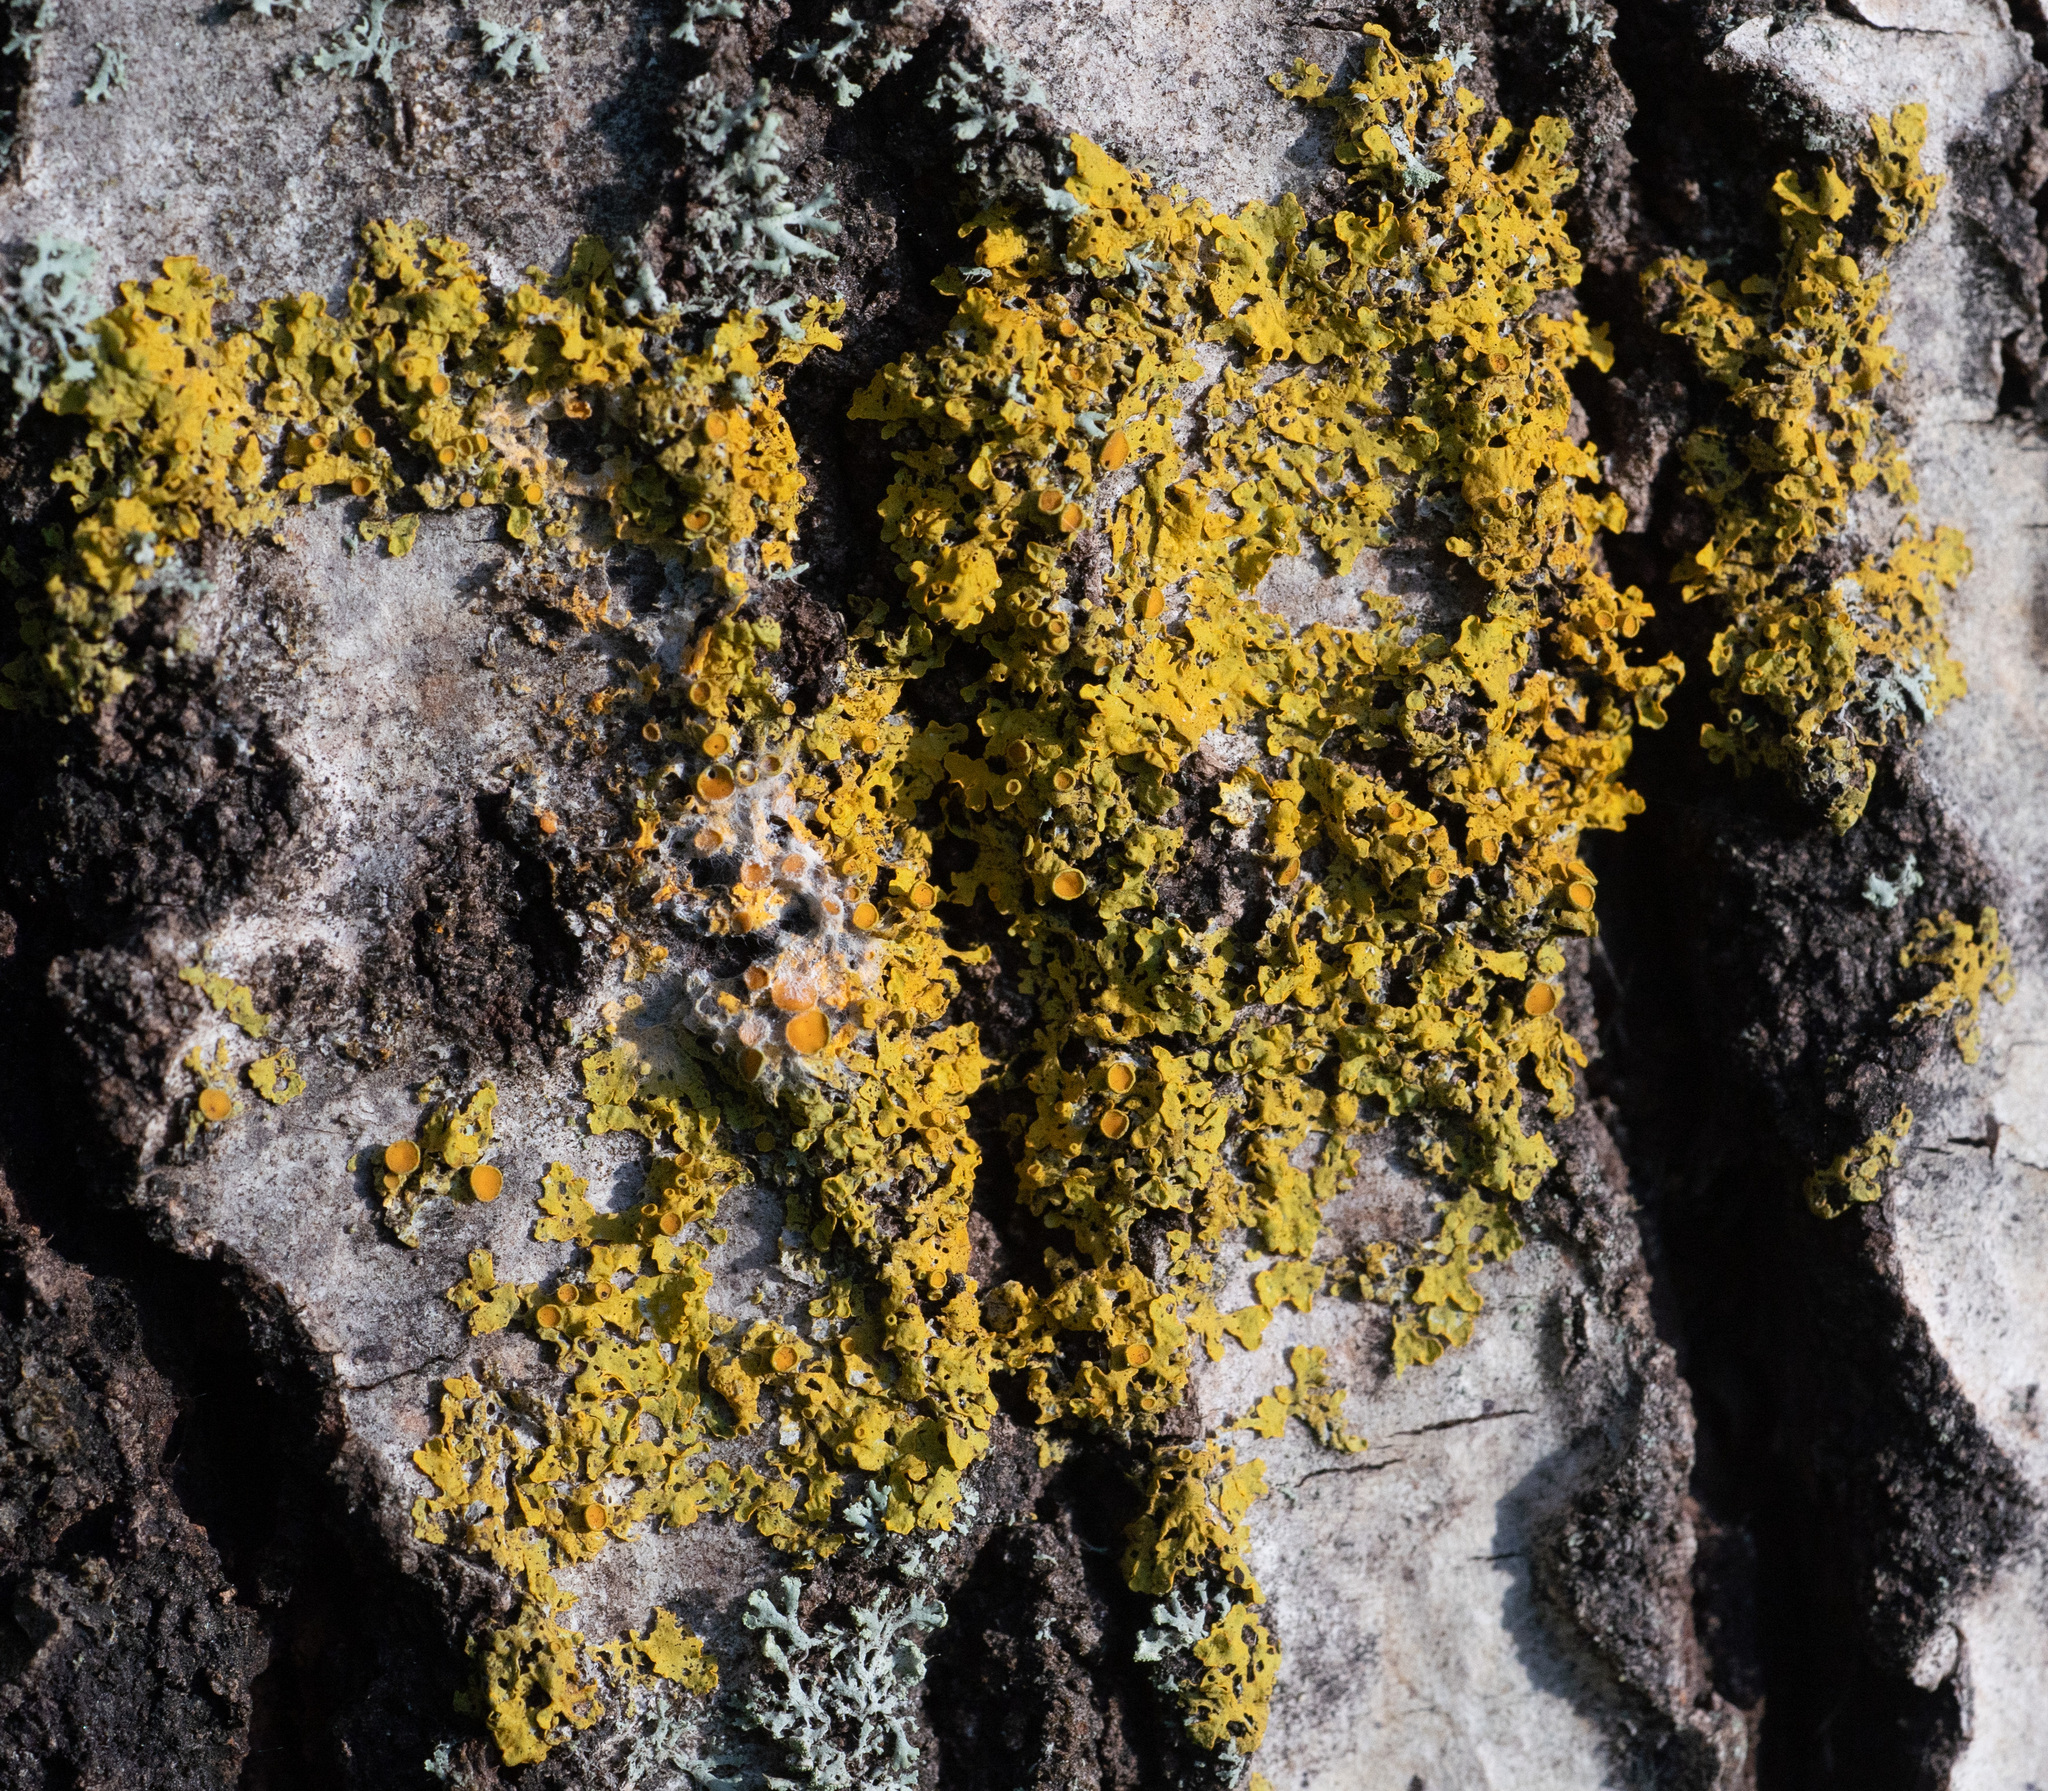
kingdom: Fungi
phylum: Ascomycota
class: Lecanoromycetes
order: Teloschistales
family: Teloschistaceae
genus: Xanthoria
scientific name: Xanthoria parietina
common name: Common orange lichen
